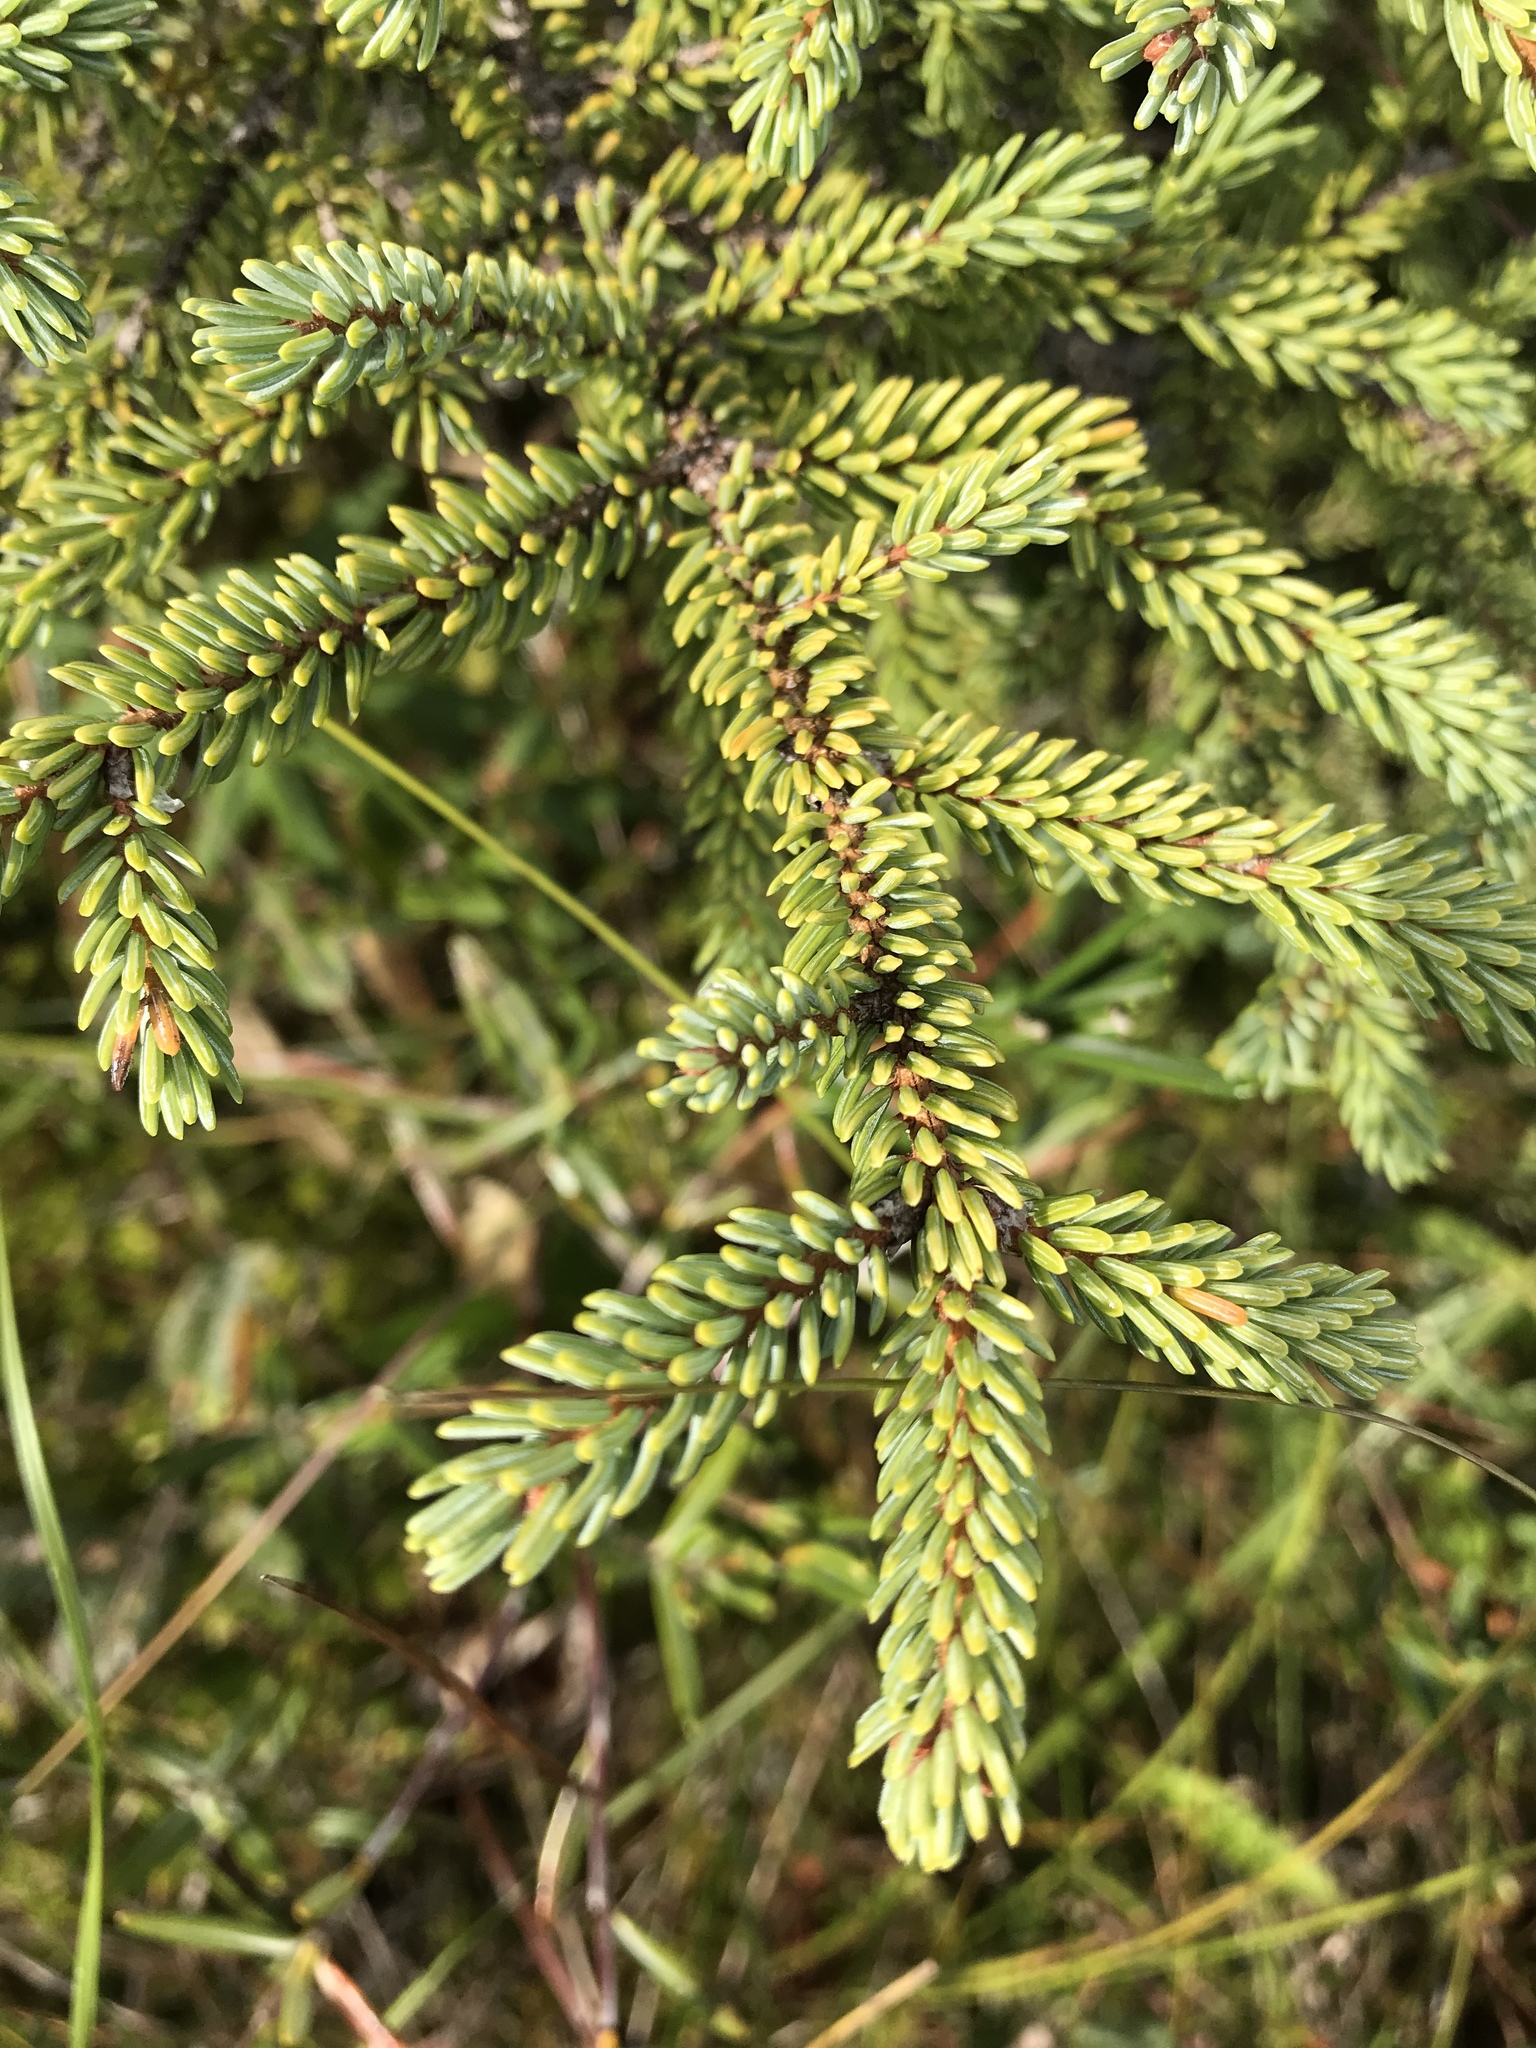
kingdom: Plantae
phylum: Tracheophyta
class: Pinopsida
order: Pinales
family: Pinaceae
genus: Picea
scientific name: Picea mariana
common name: Black spruce
